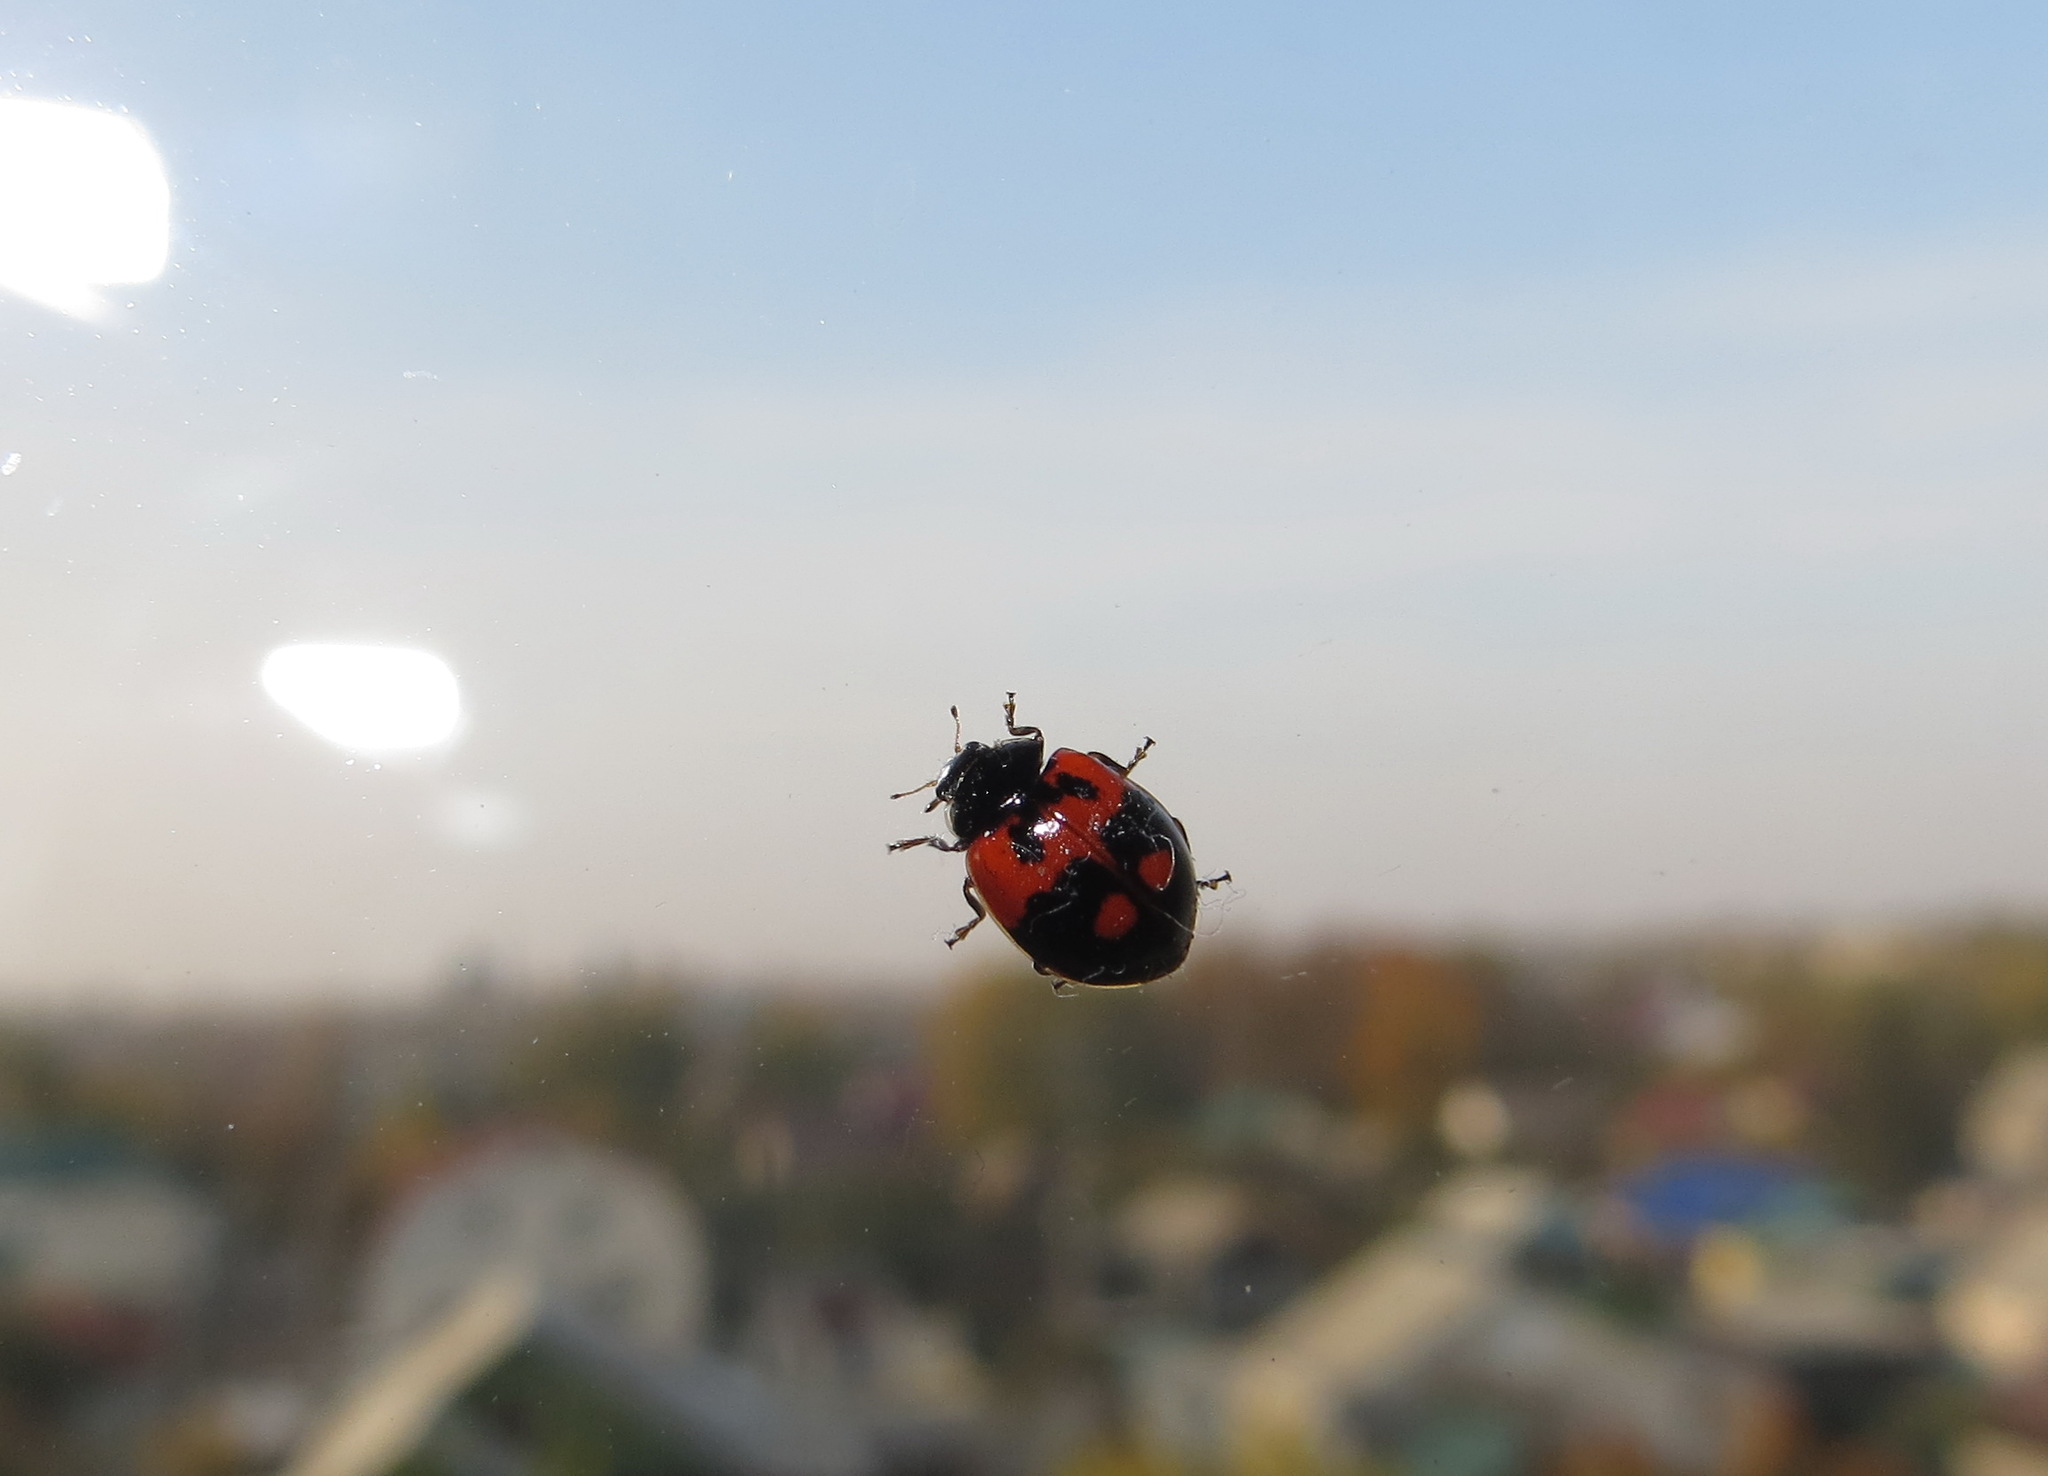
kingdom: Animalia
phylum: Arthropoda
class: Insecta
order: Coleoptera
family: Coccinellidae
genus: Adalia
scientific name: Adalia bipunctata
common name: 2-spot ladybird
